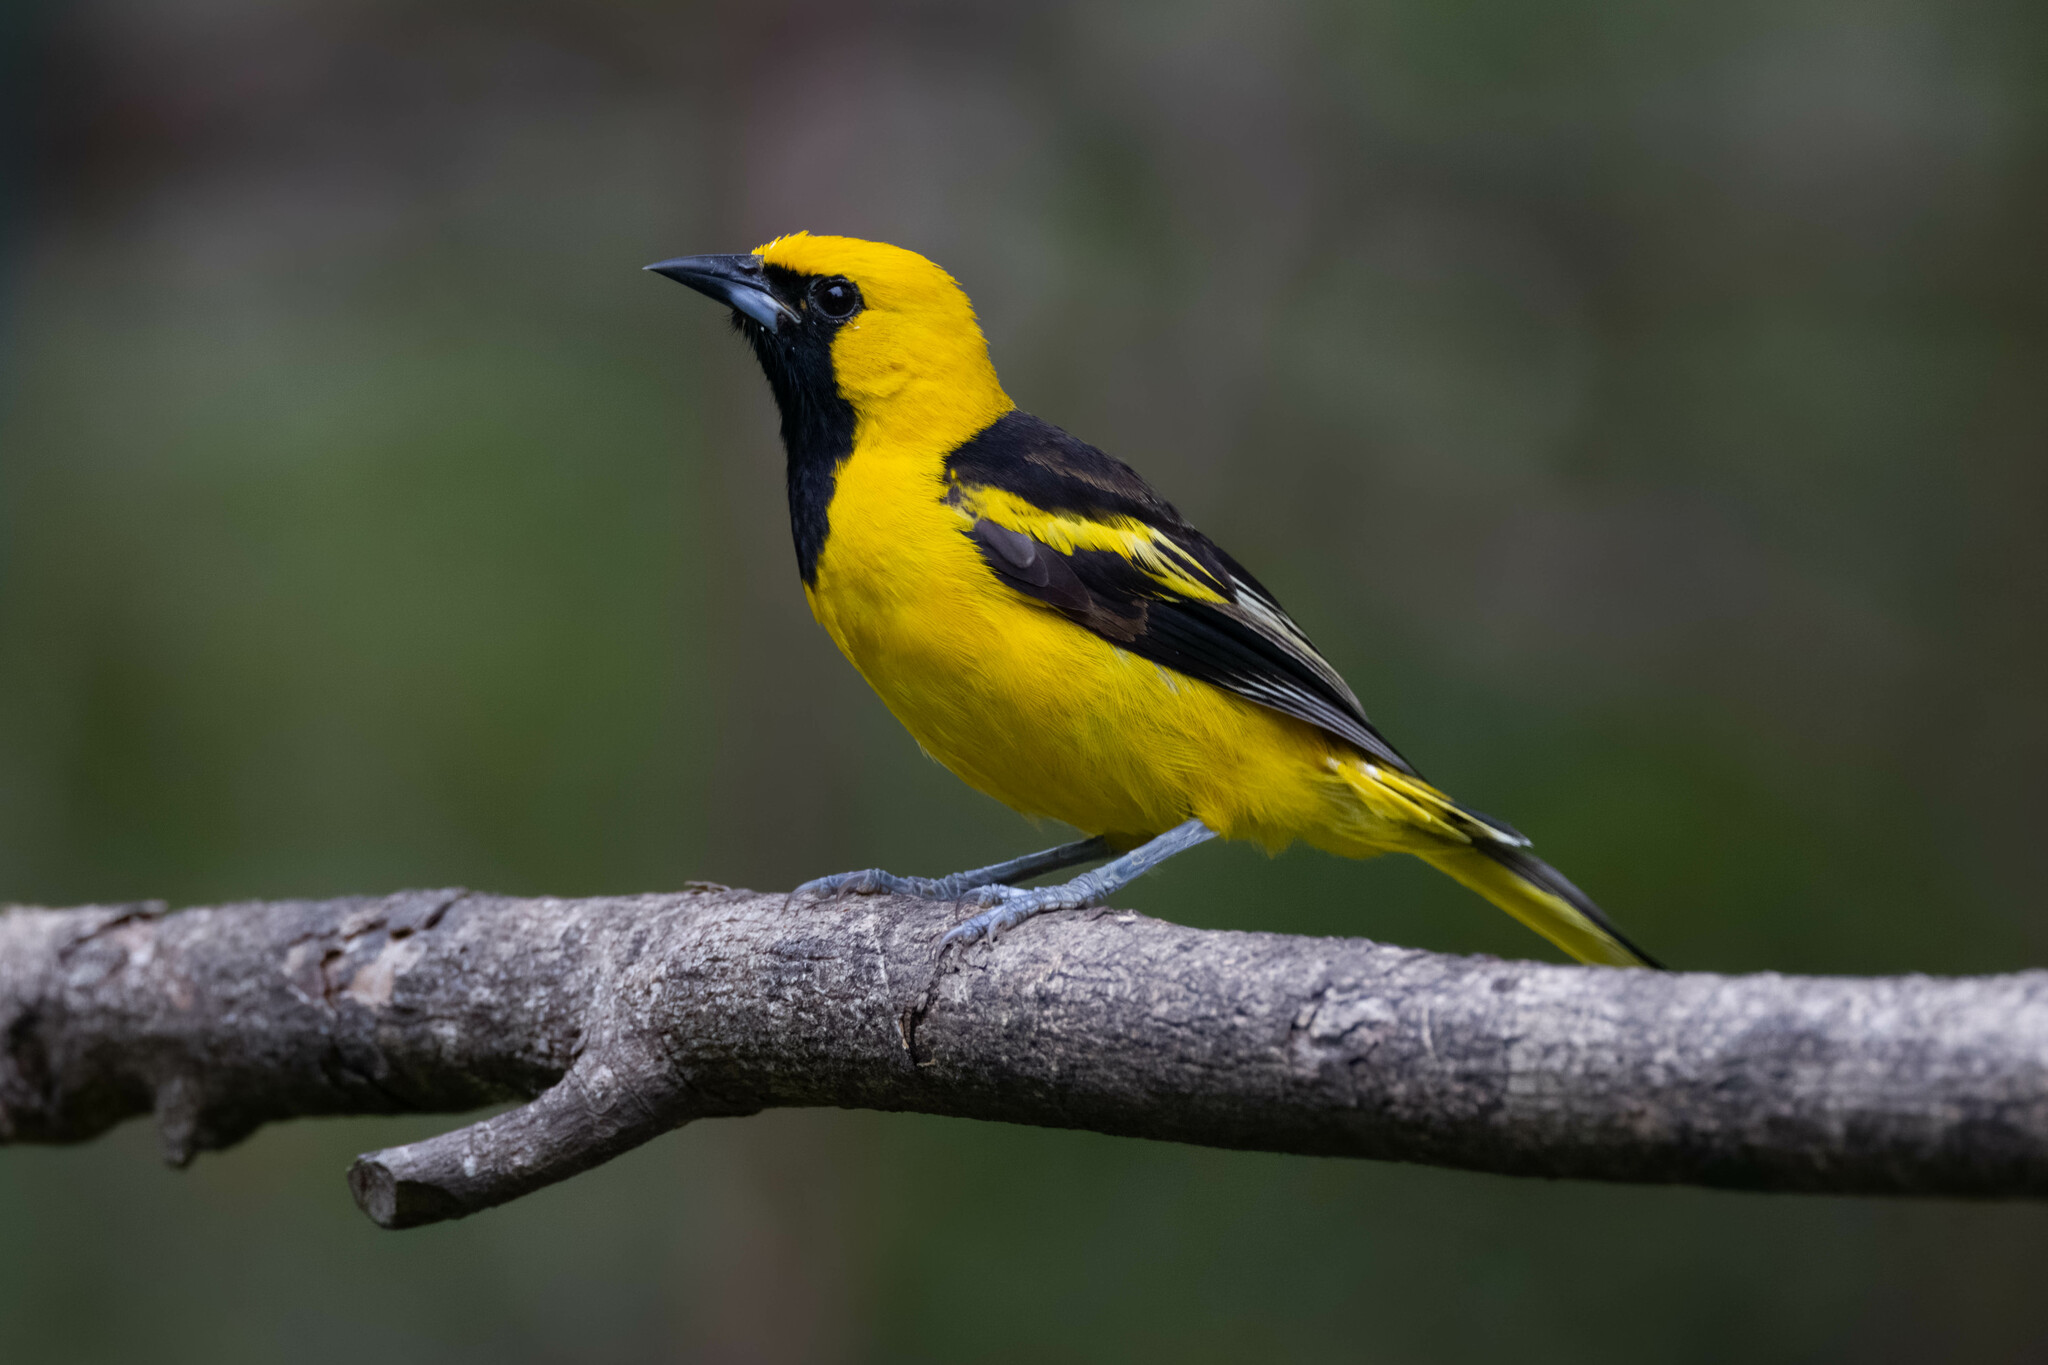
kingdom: Animalia
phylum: Chordata
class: Aves
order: Passeriformes
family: Icteridae
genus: Icterus
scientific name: Icterus mesomelas
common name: Yellow-tailed oriole
